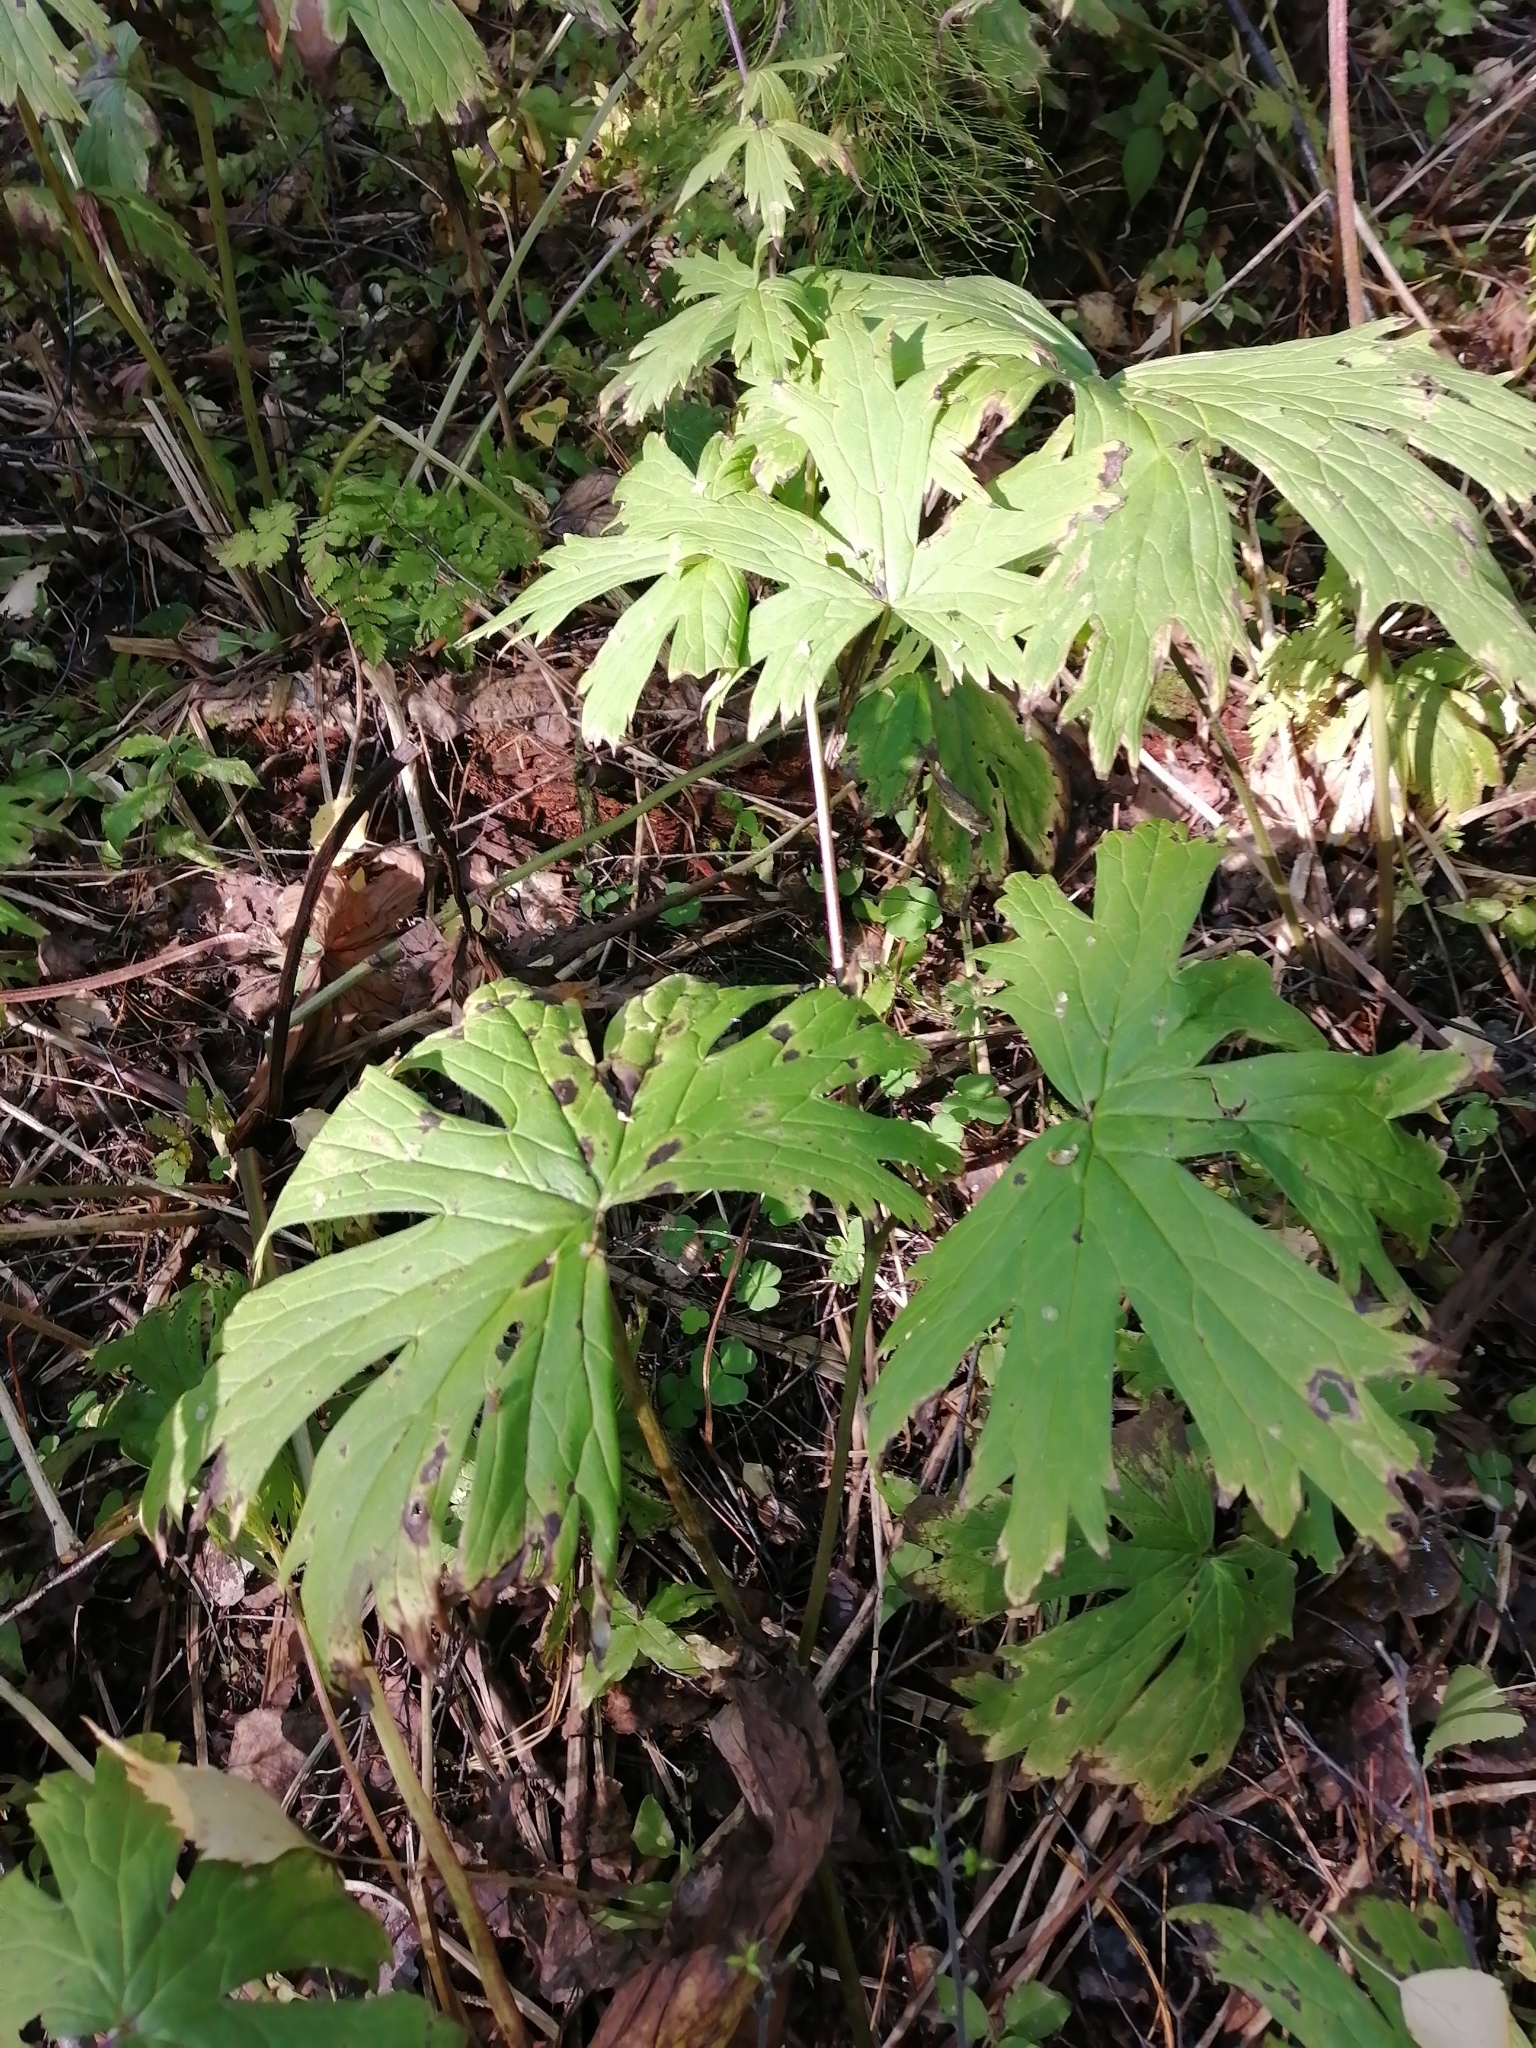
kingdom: Plantae
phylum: Tracheophyta
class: Magnoliopsida
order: Ranunculales
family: Ranunculaceae
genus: Aconitum
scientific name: Aconitum septentrionale
